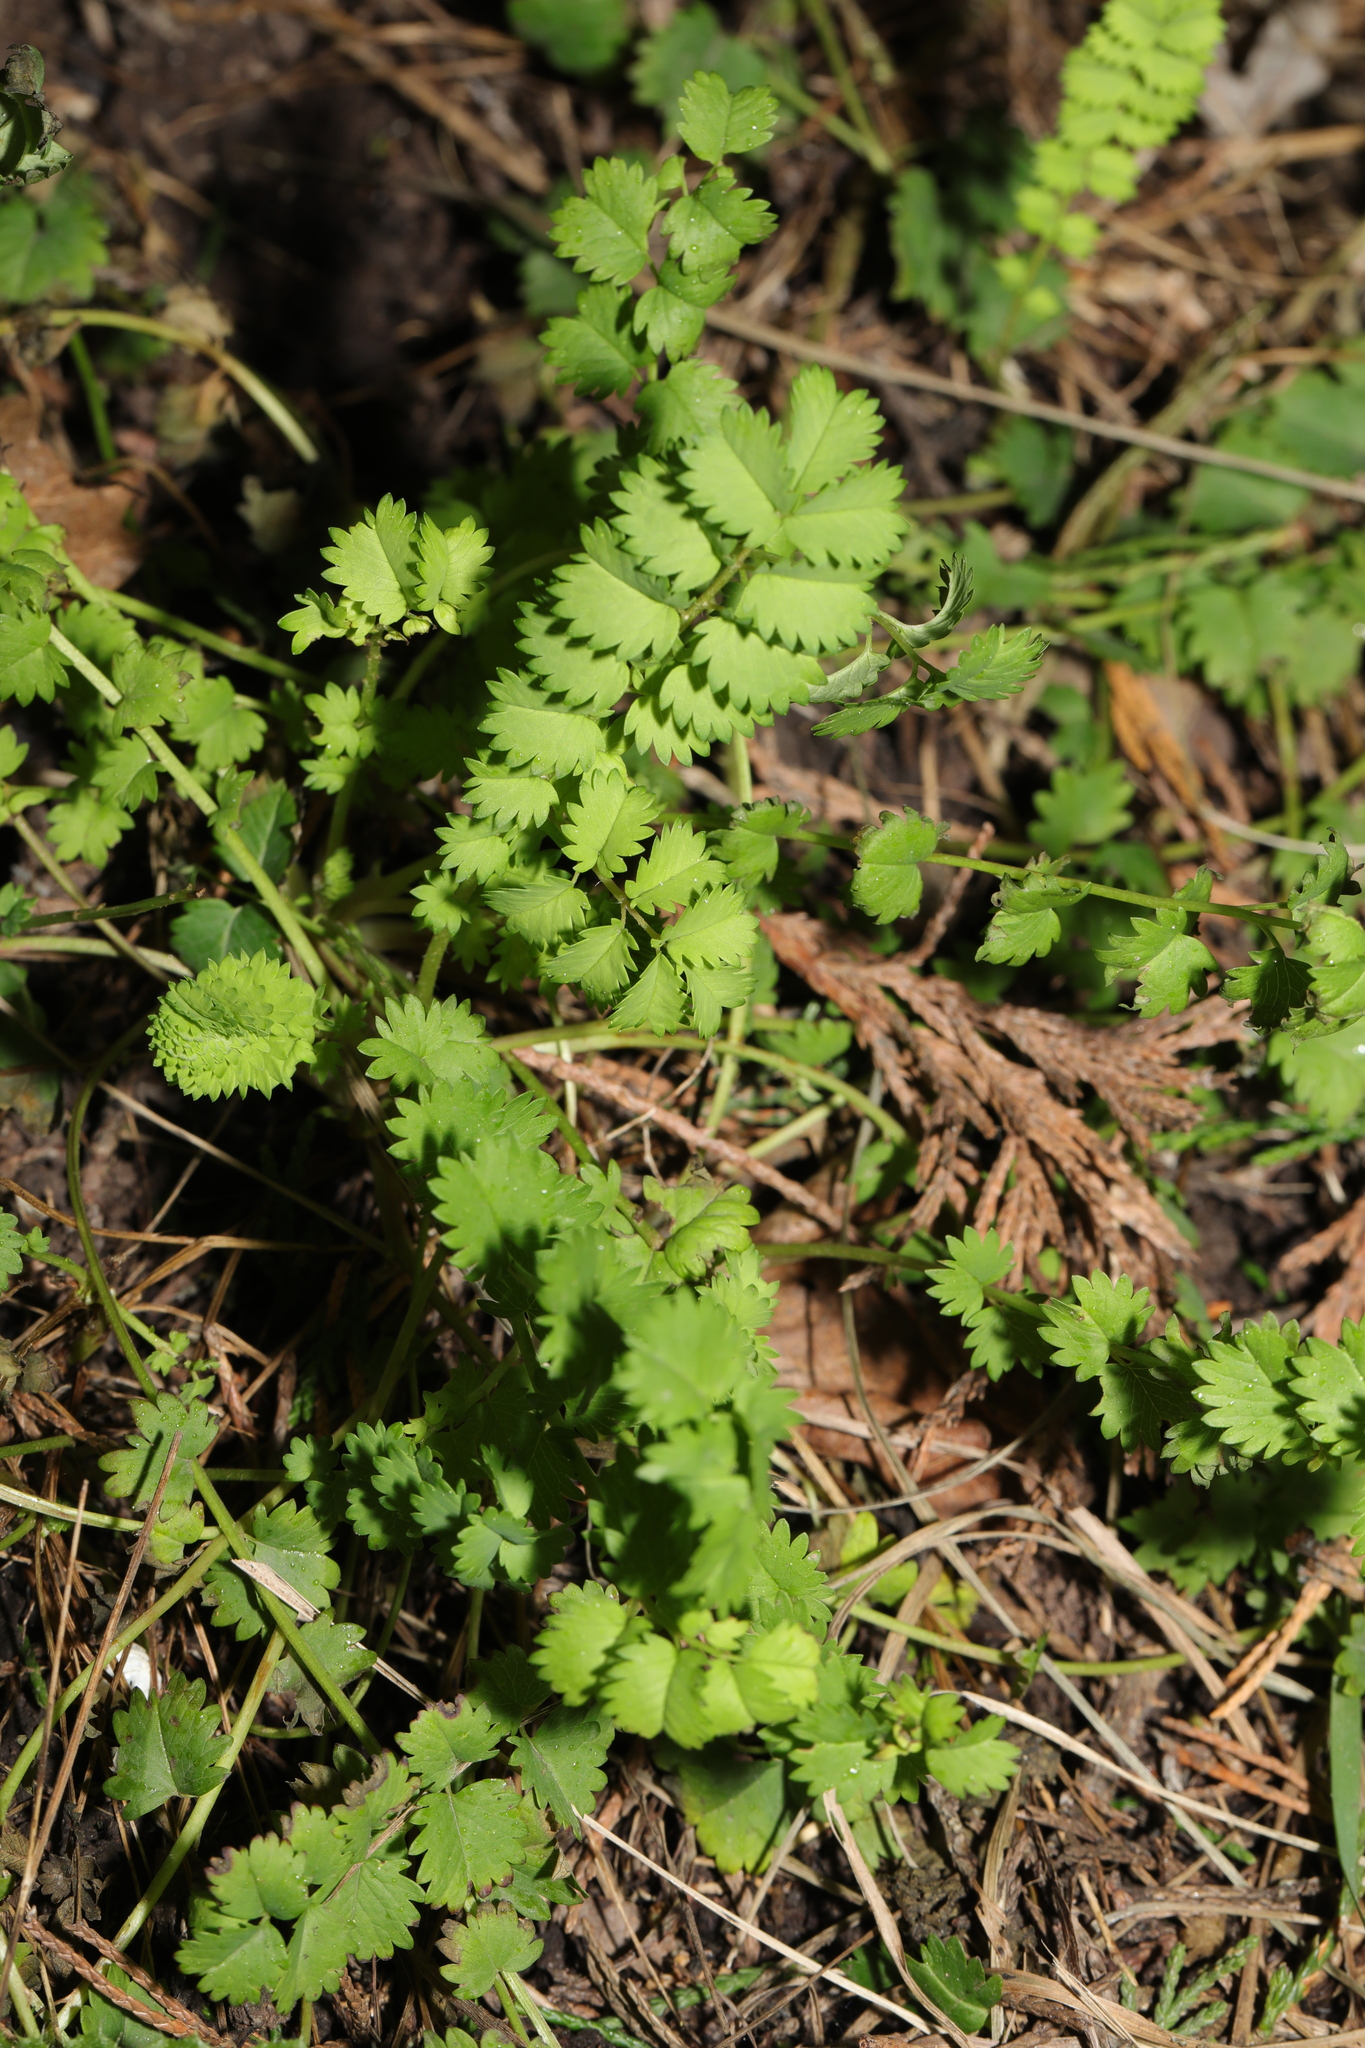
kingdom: Plantae
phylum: Tracheophyta
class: Magnoliopsida
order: Rosales
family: Rosaceae
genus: Poterium
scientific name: Poterium sanguisorba
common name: Salad burnet
